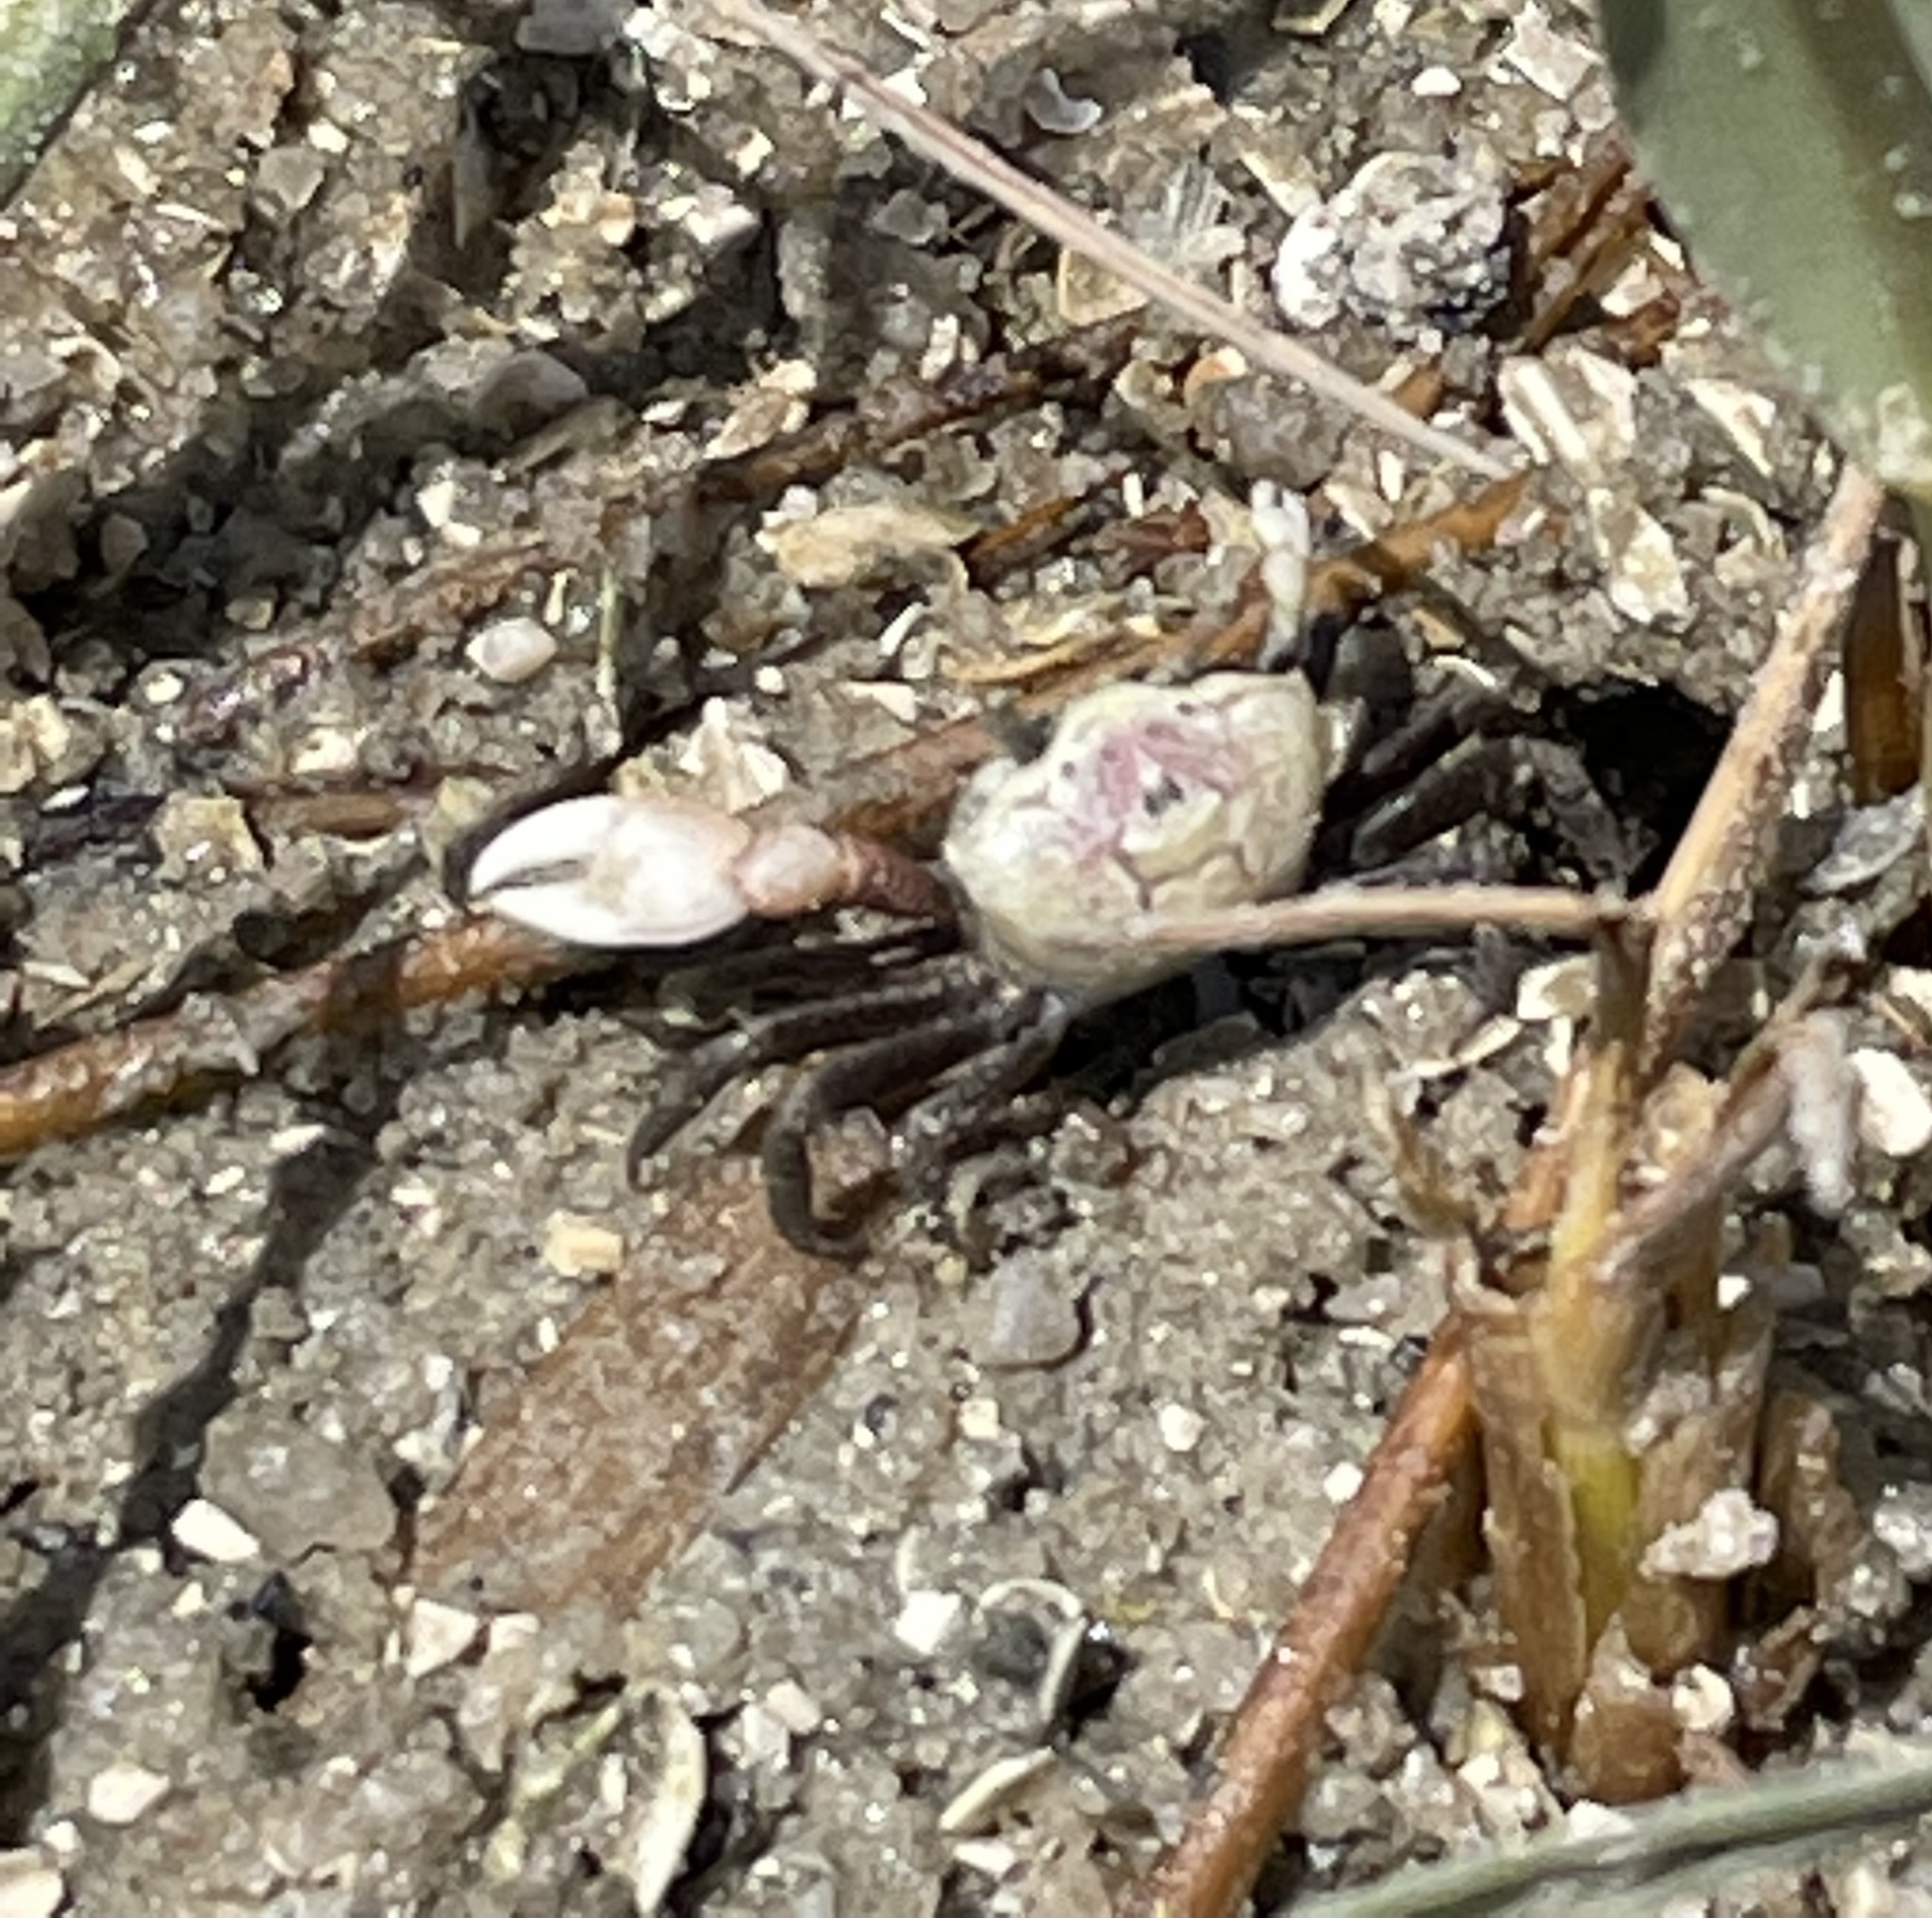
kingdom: Animalia
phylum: Arthropoda
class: Malacostraca
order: Decapoda
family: Ocypodidae
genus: Leptuca
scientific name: Leptuca pugilator
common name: Atlantic sand fiddler crab
